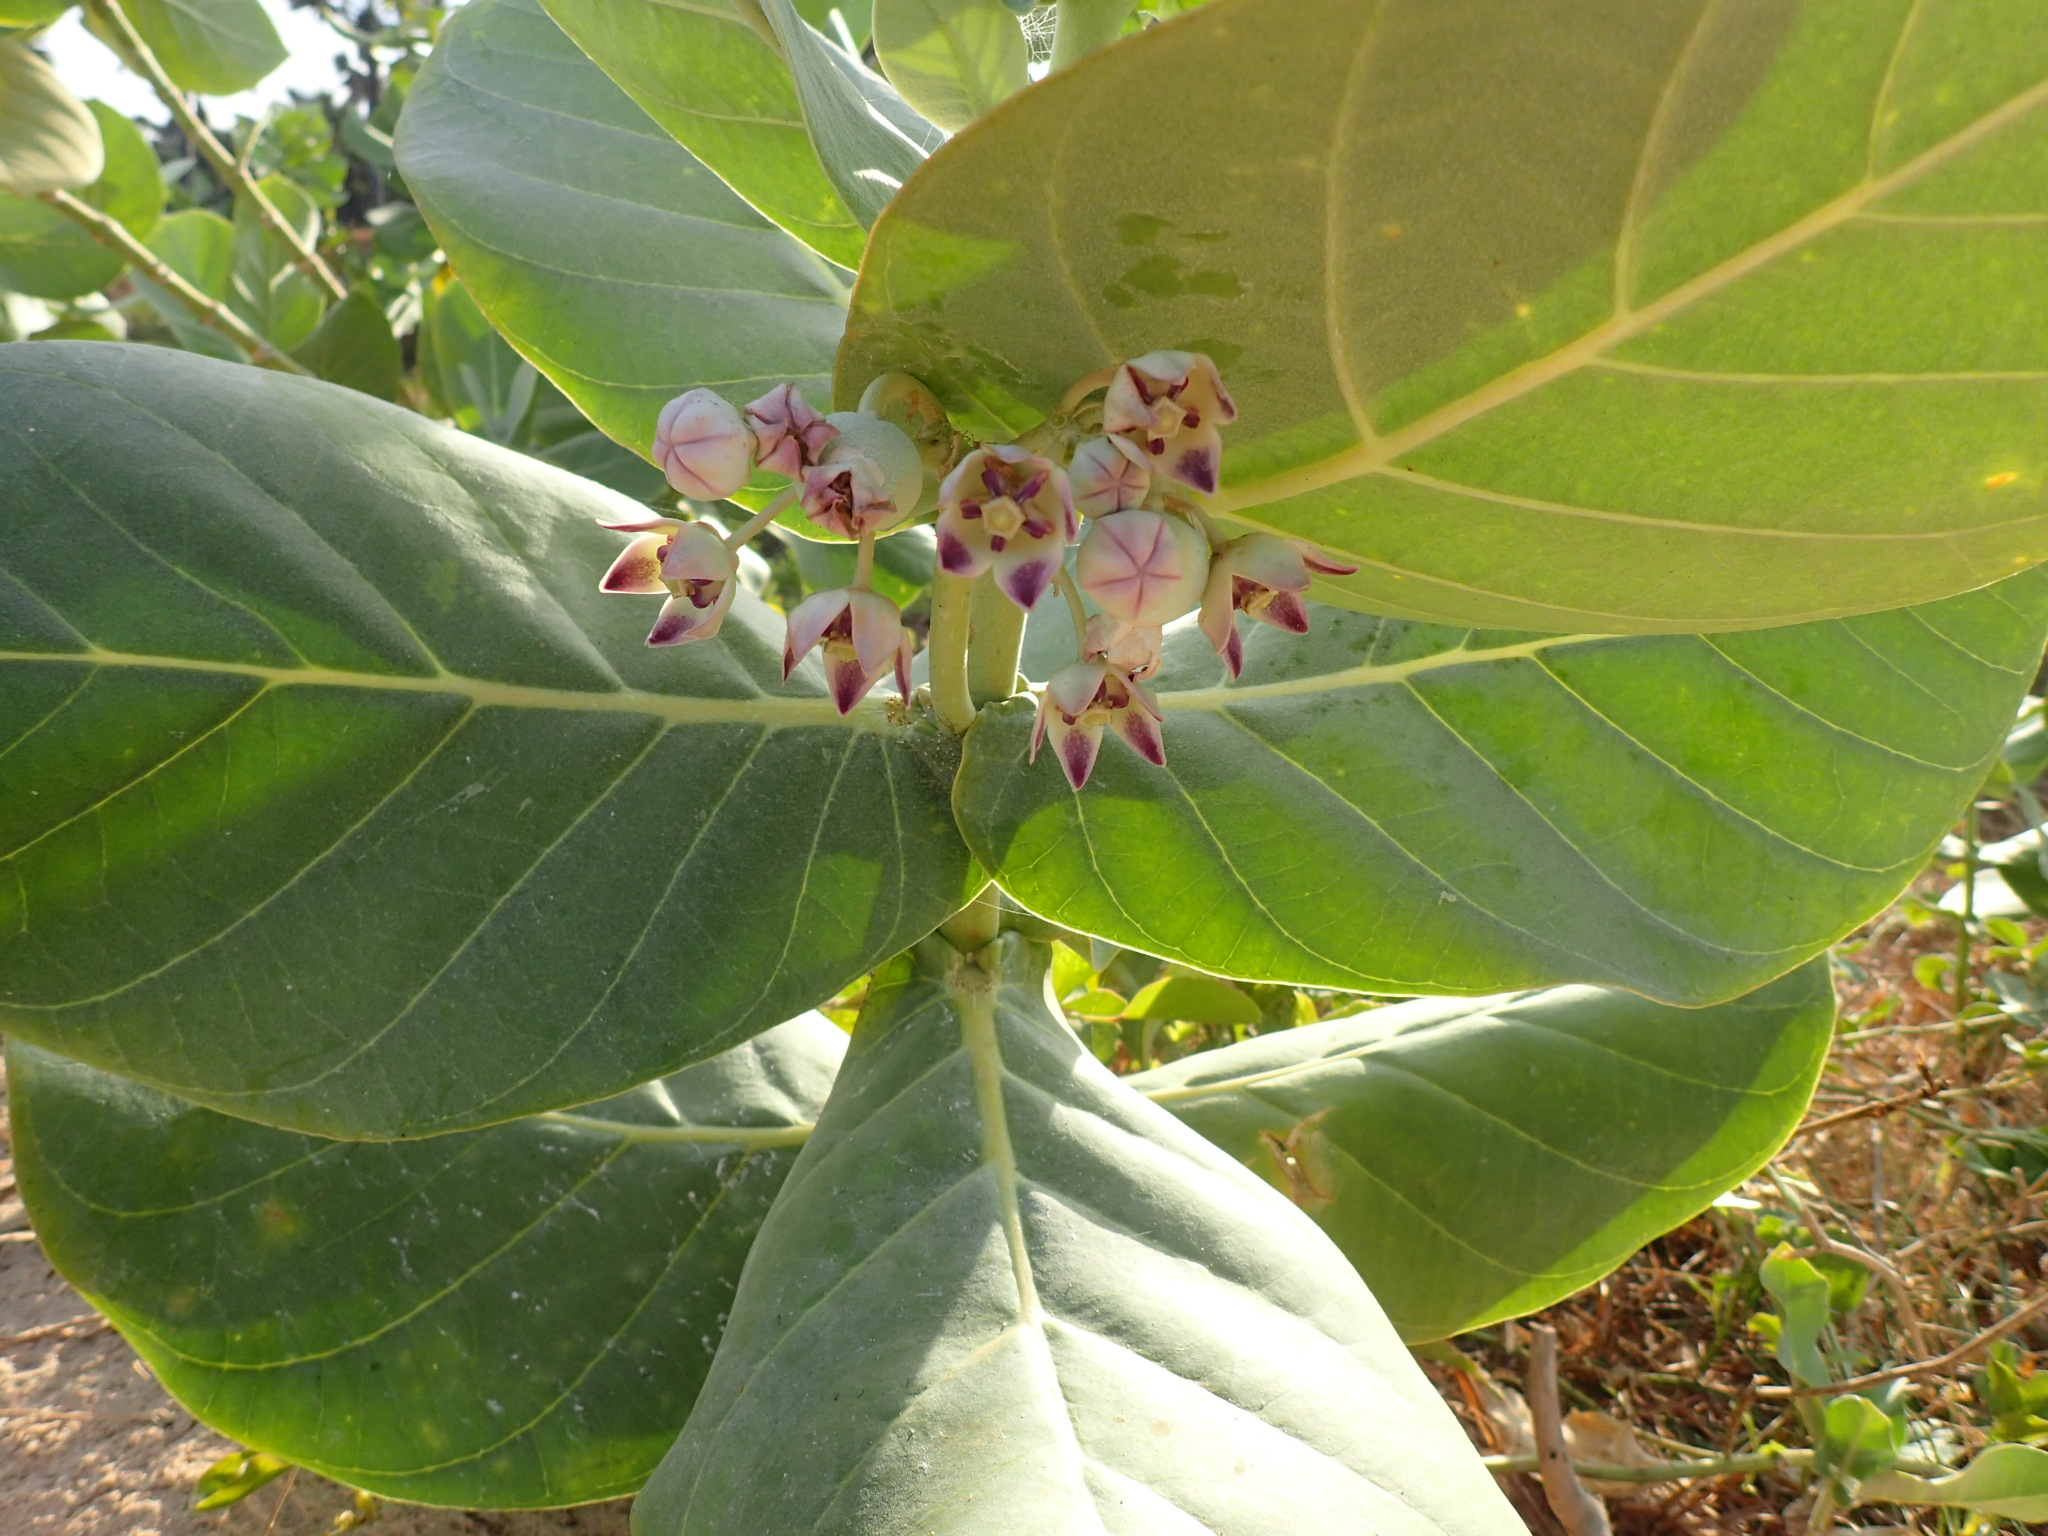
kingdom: Plantae
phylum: Tracheophyta
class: Magnoliopsida
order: Gentianales
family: Apocynaceae
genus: Calotropis
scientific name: Calotropis procera
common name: Roostertree
